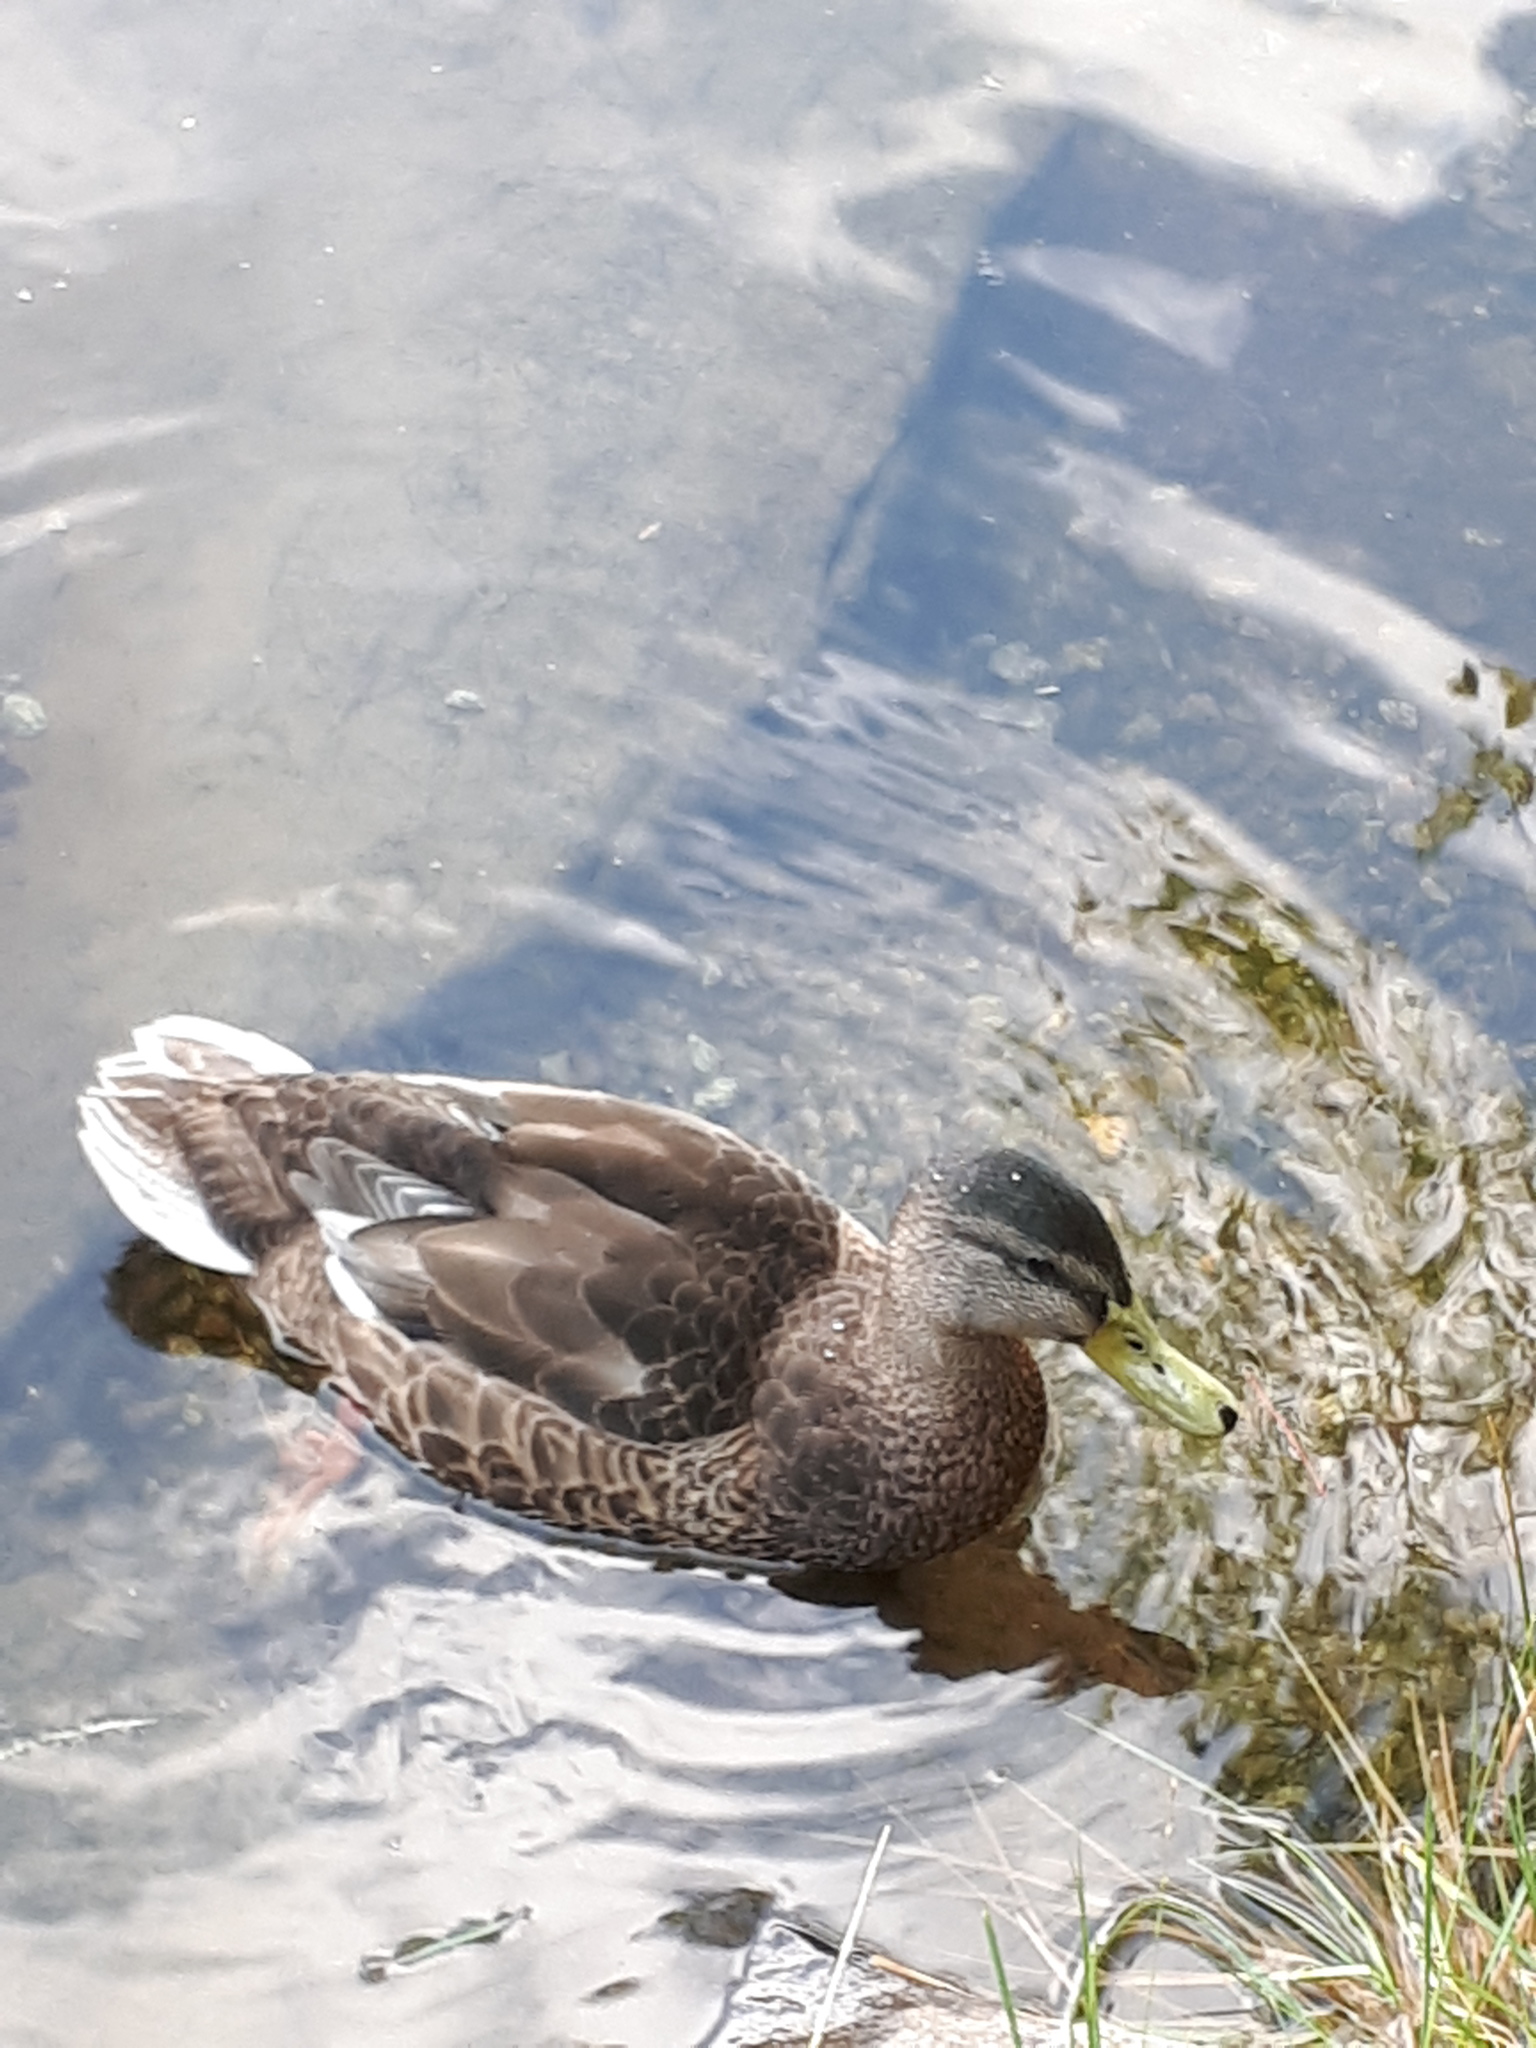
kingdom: Animalia
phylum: Chordata
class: Aves
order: Anseriformes
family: Anatidae
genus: Anas
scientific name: Anas platyrhynchos
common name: Mallard
